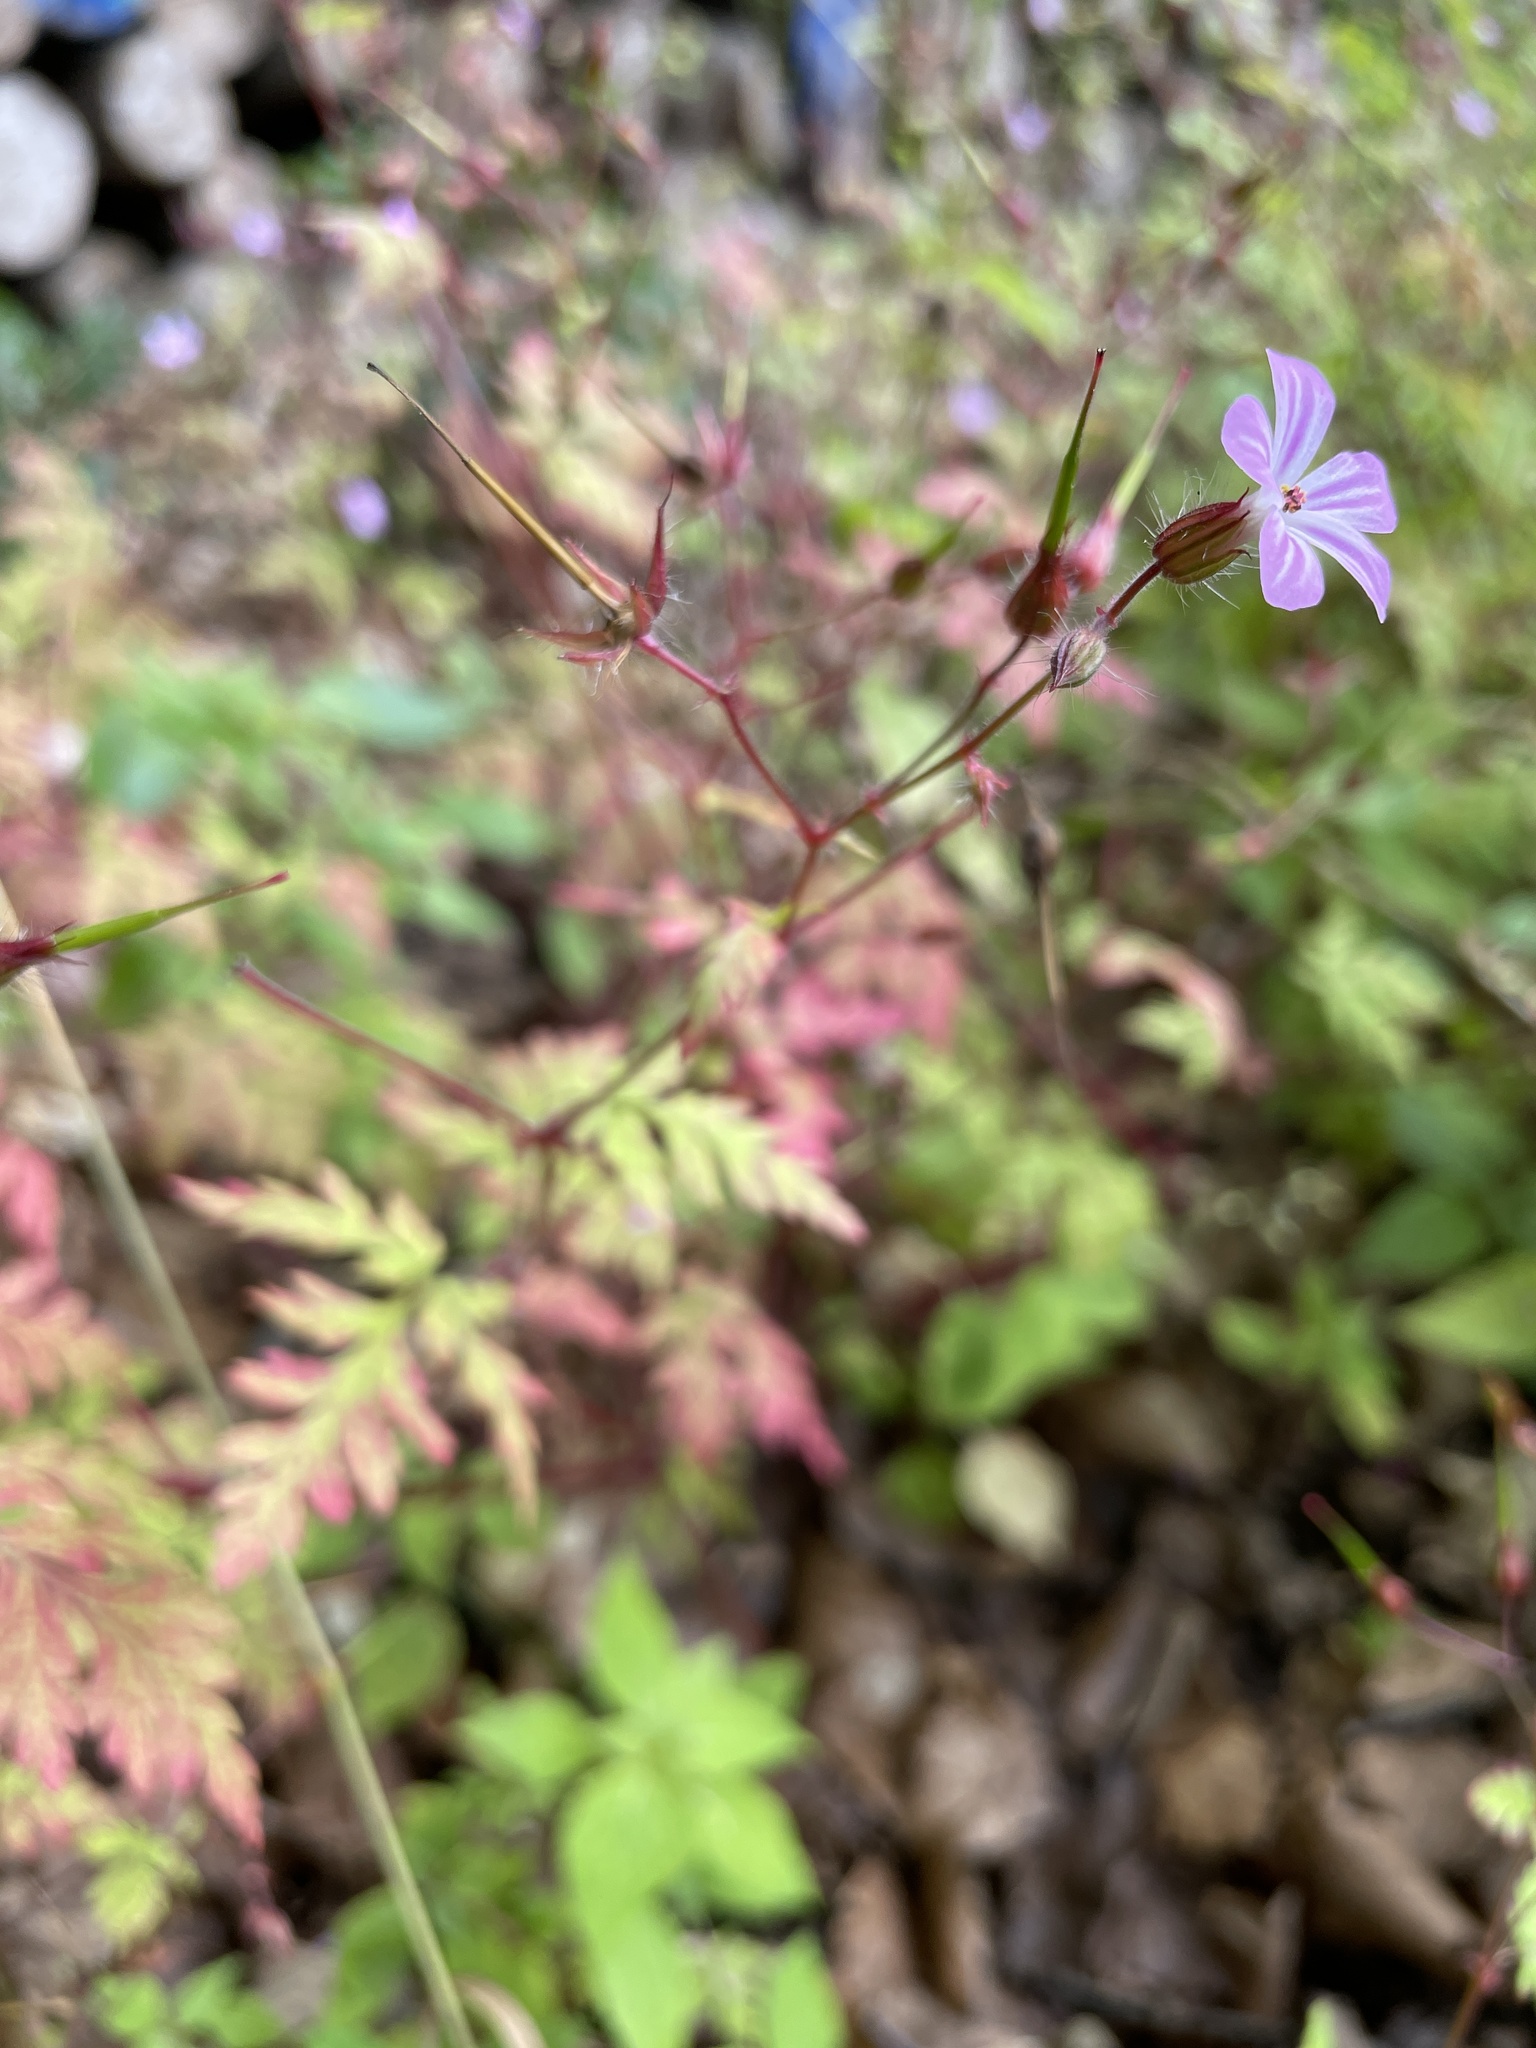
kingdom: Plantae
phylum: Tracheophyta
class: Magnoliopsida
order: Geraniales
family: Geraniaceae
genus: Geranium
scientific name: Geranium robertianum
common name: Herb-robert
